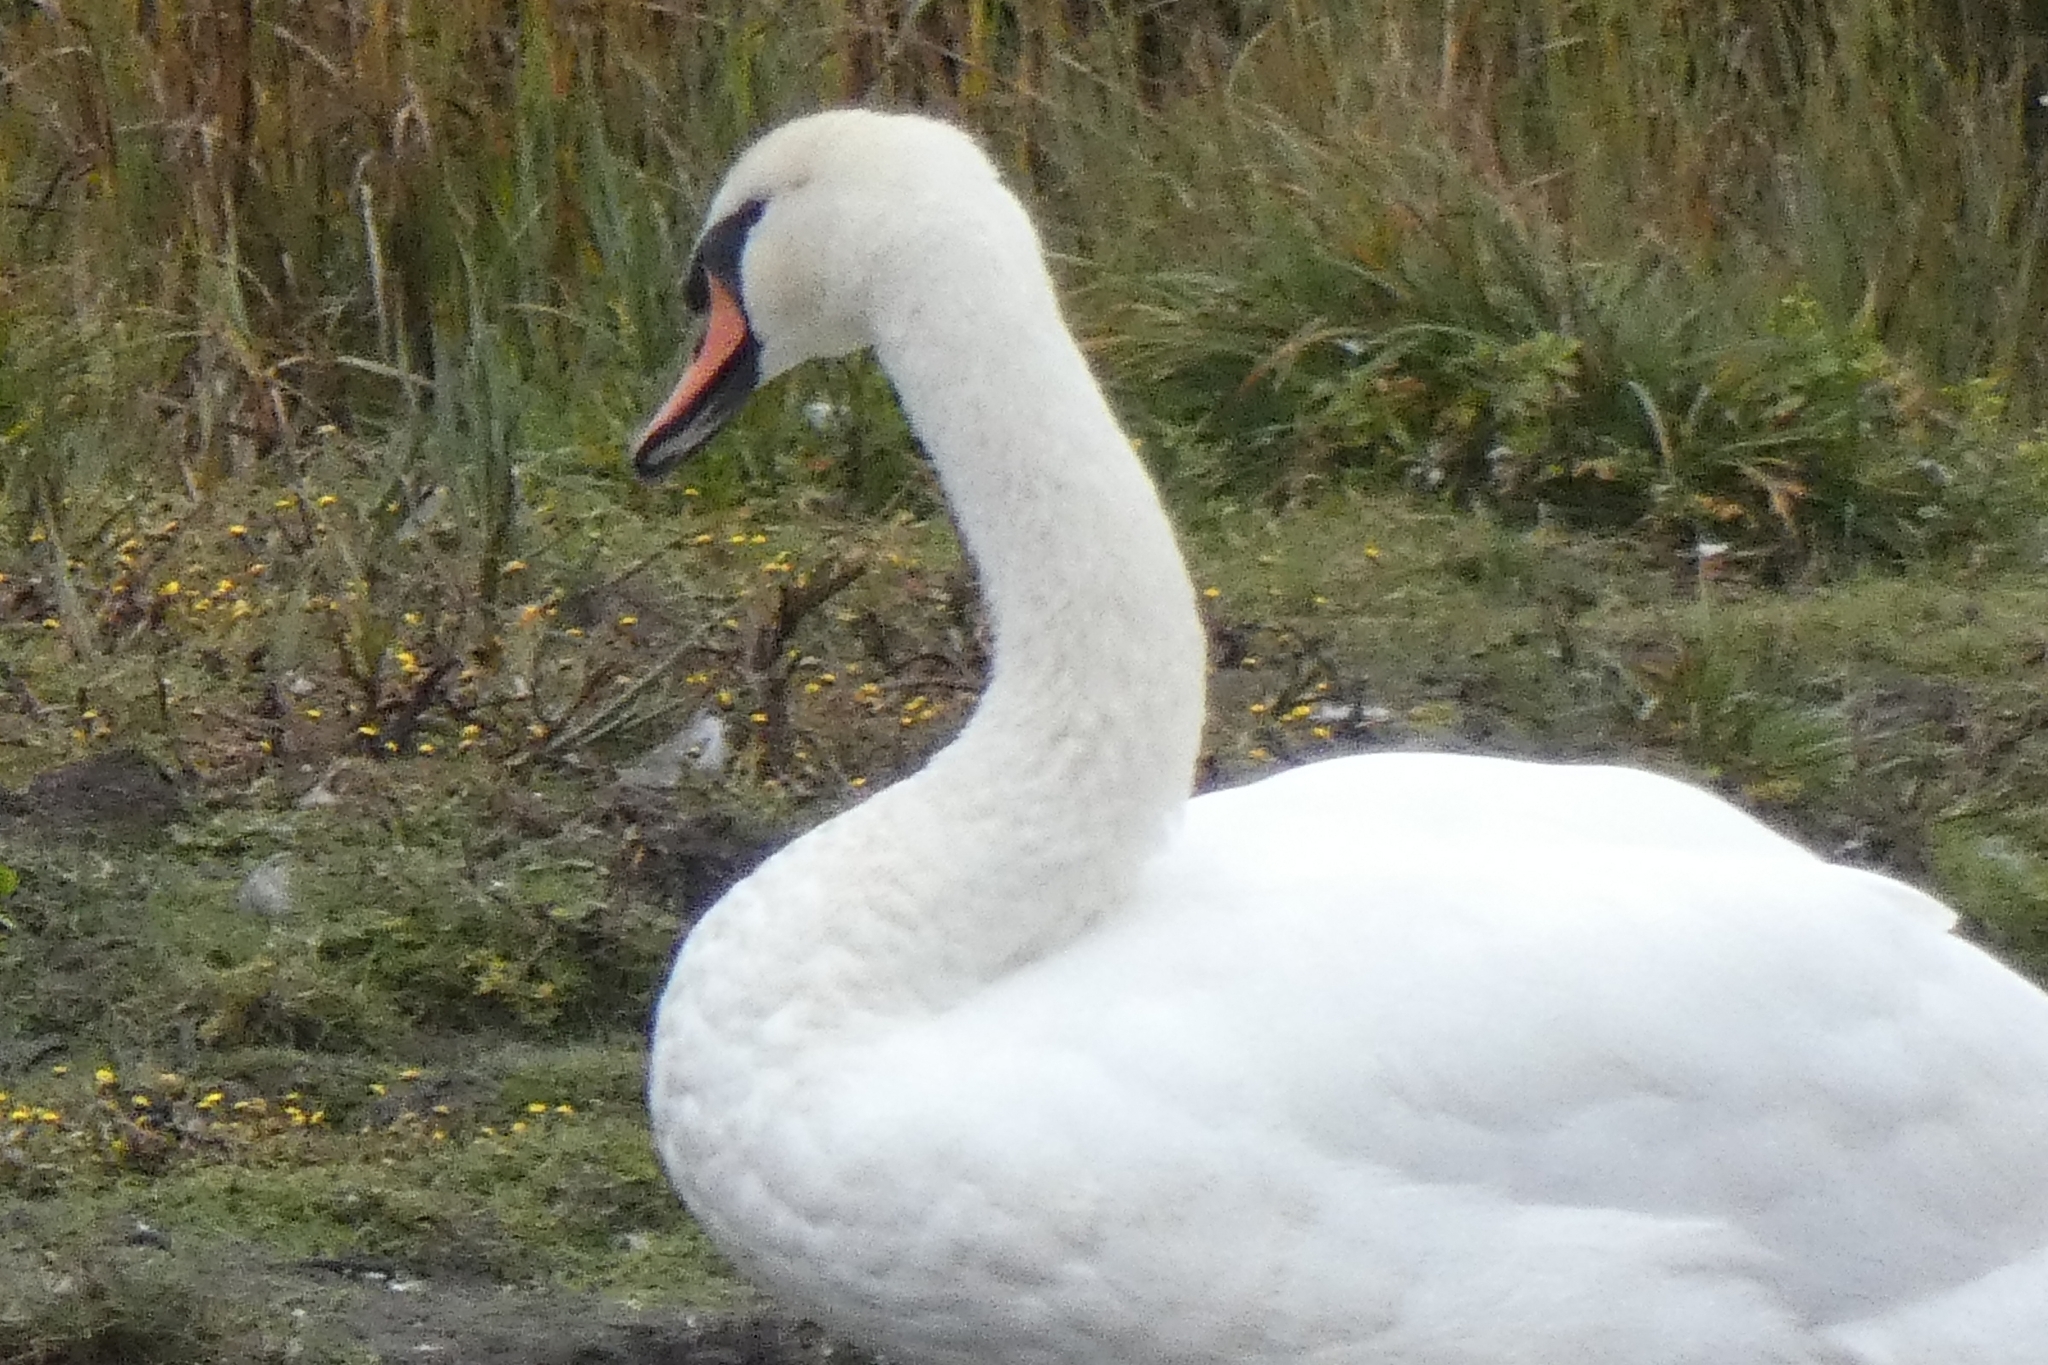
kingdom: Animalia
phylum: Chordata
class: Aves
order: Anseriformes
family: Anatidae
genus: Cygnus
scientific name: Cygnus olor
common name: Mute swan
